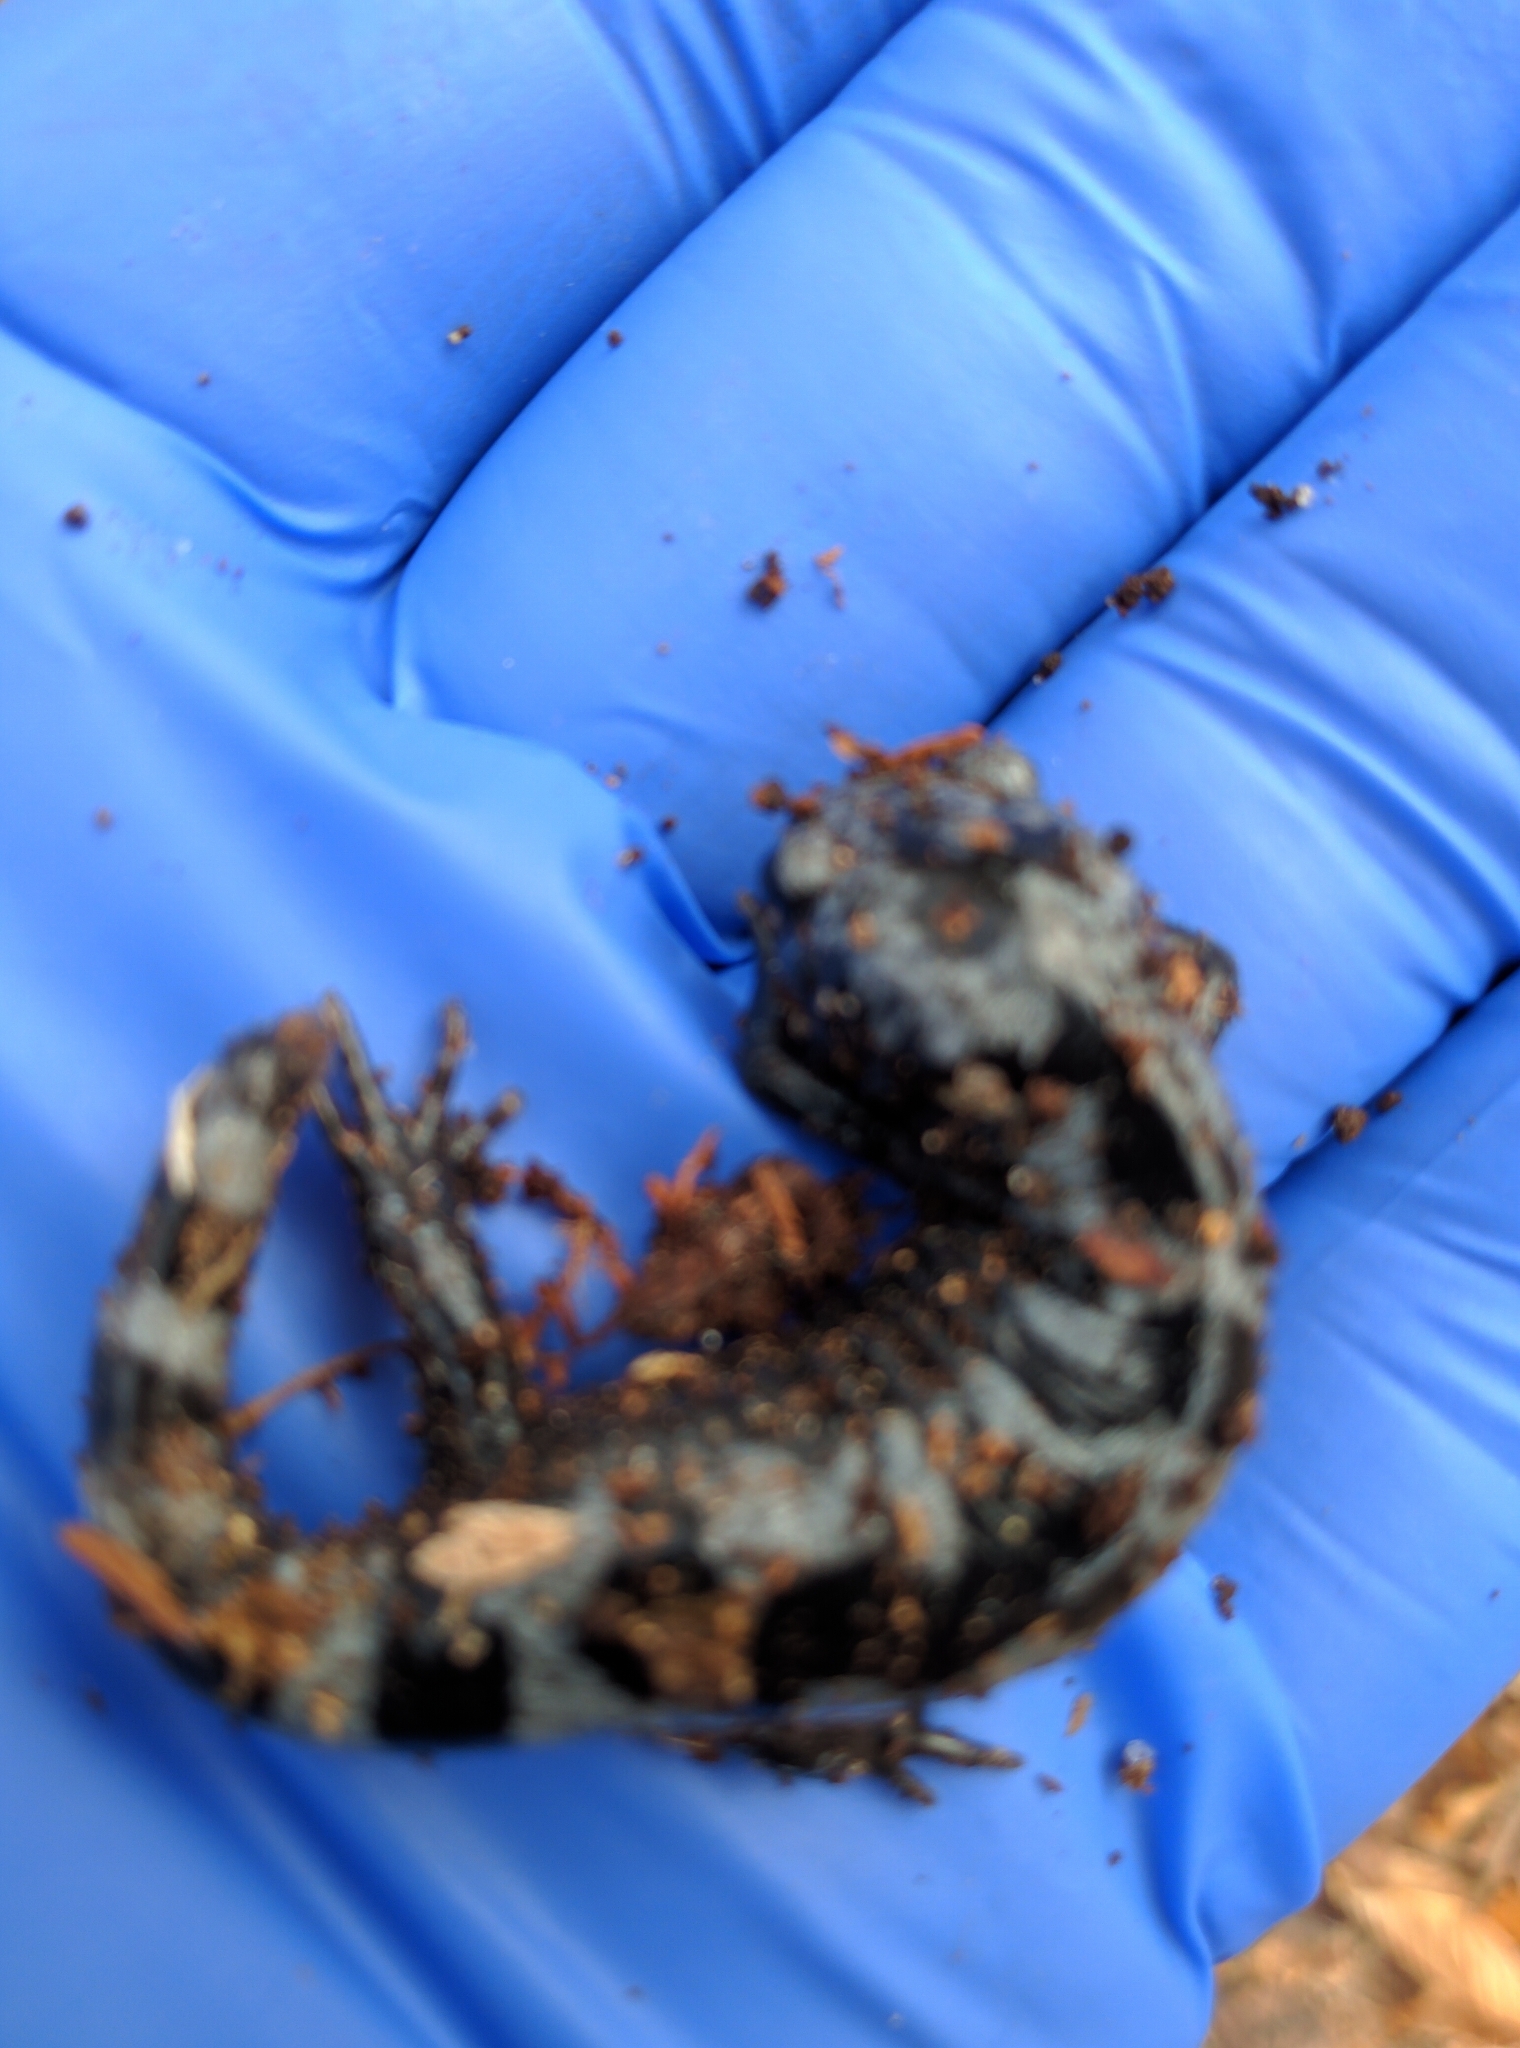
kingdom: Animalia
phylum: Chordata
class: Amphibia
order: Caudata
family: Ambystomatidae
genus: Ambystoma
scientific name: Ambystoma opacum
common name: Marbled salamander
